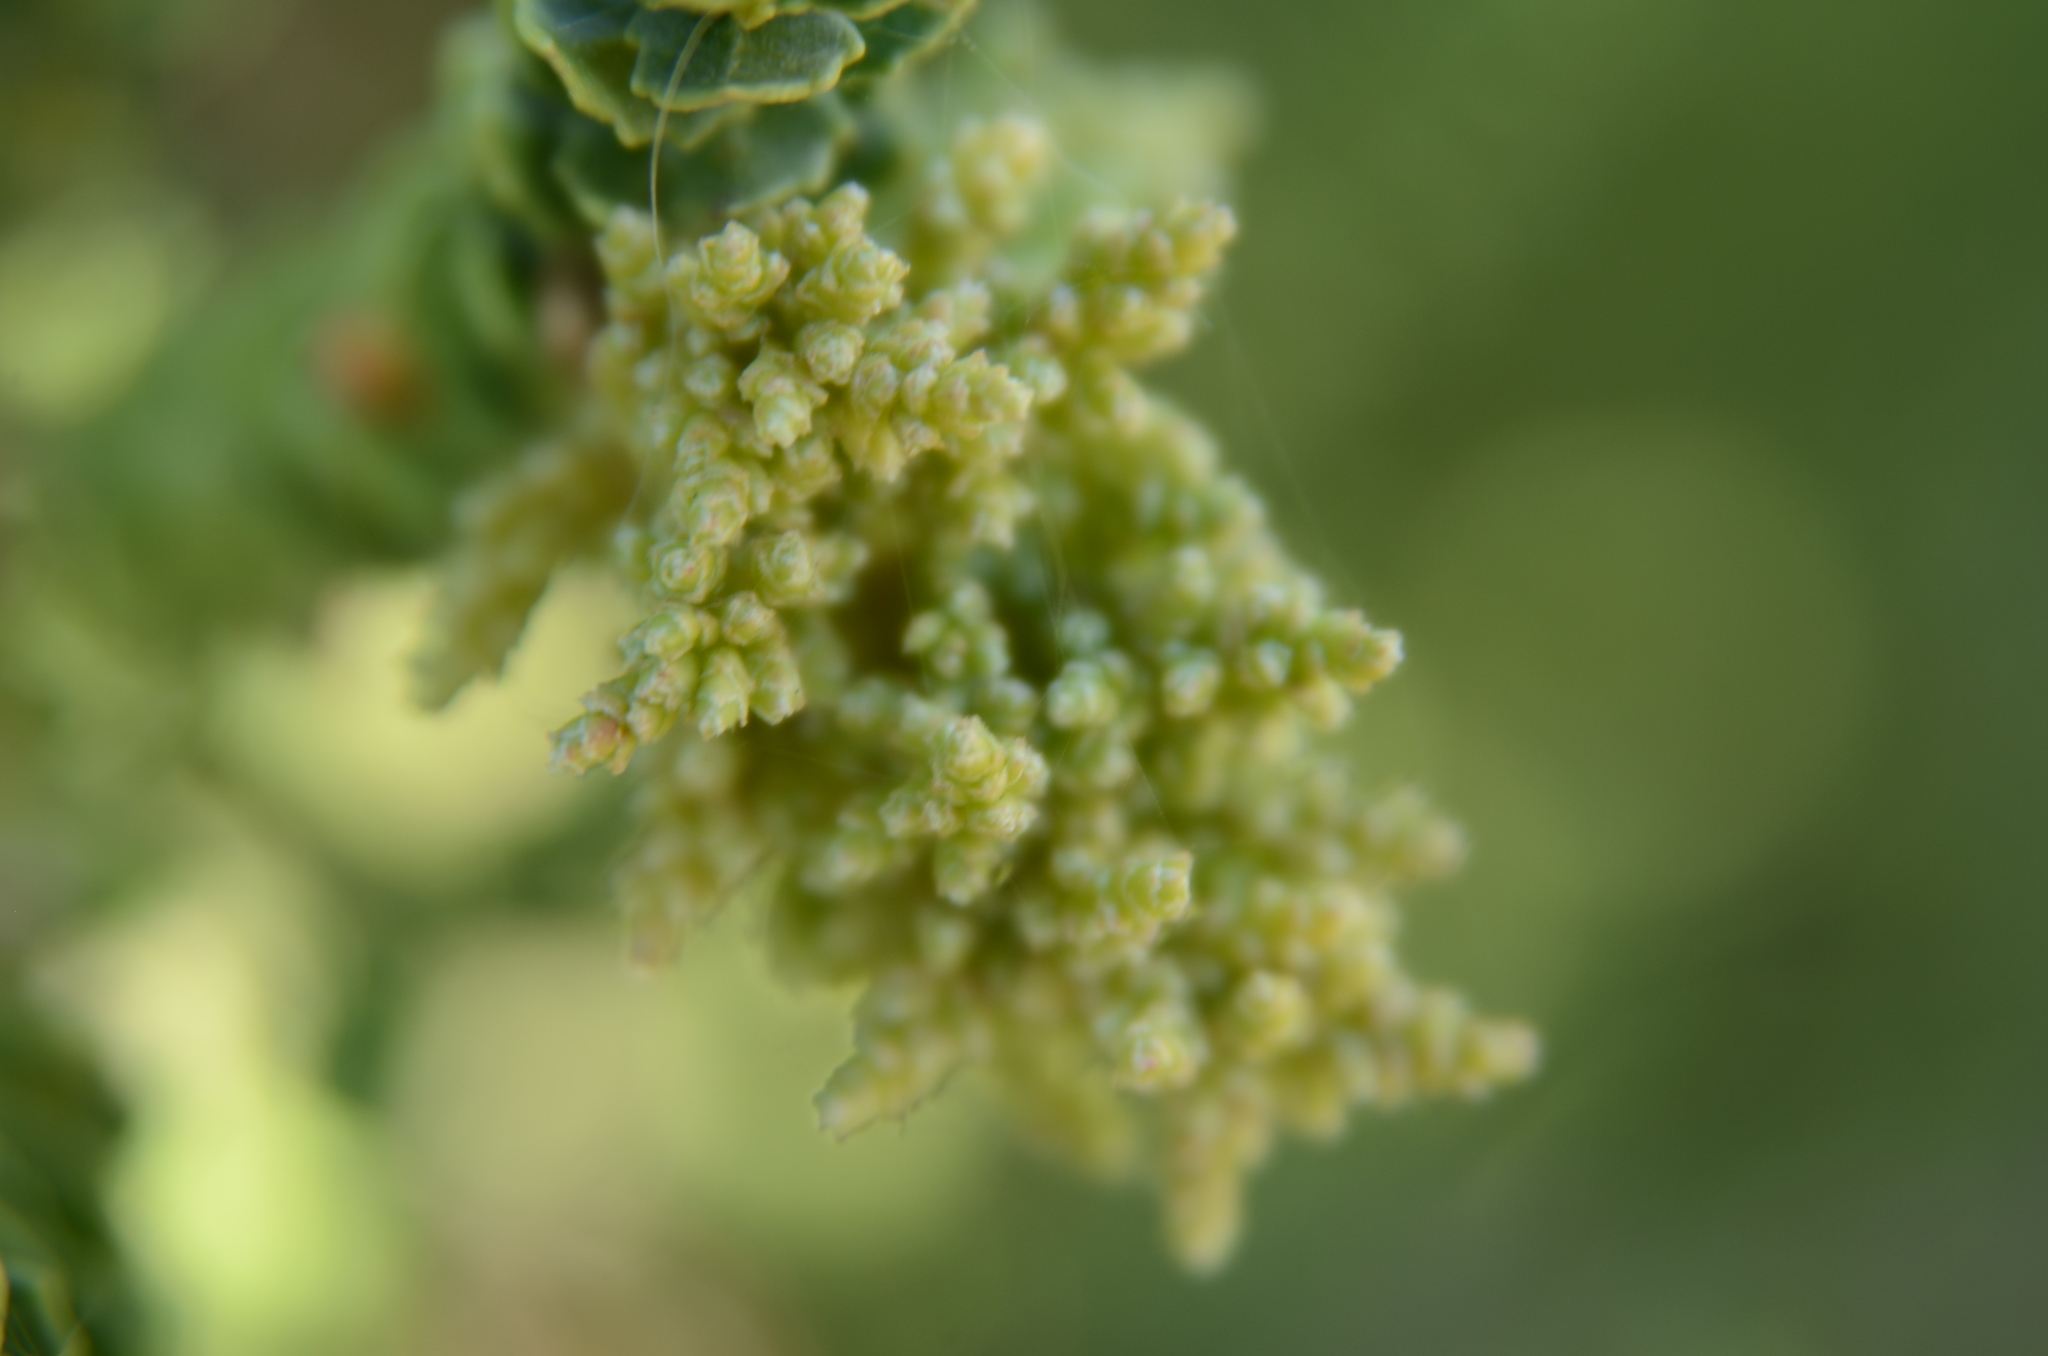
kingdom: Plantae
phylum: Tracheophyta
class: Magnoliopsida
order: Fagales
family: Myricaceae
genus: Morella
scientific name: Morella cordifolia
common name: Waxberry
